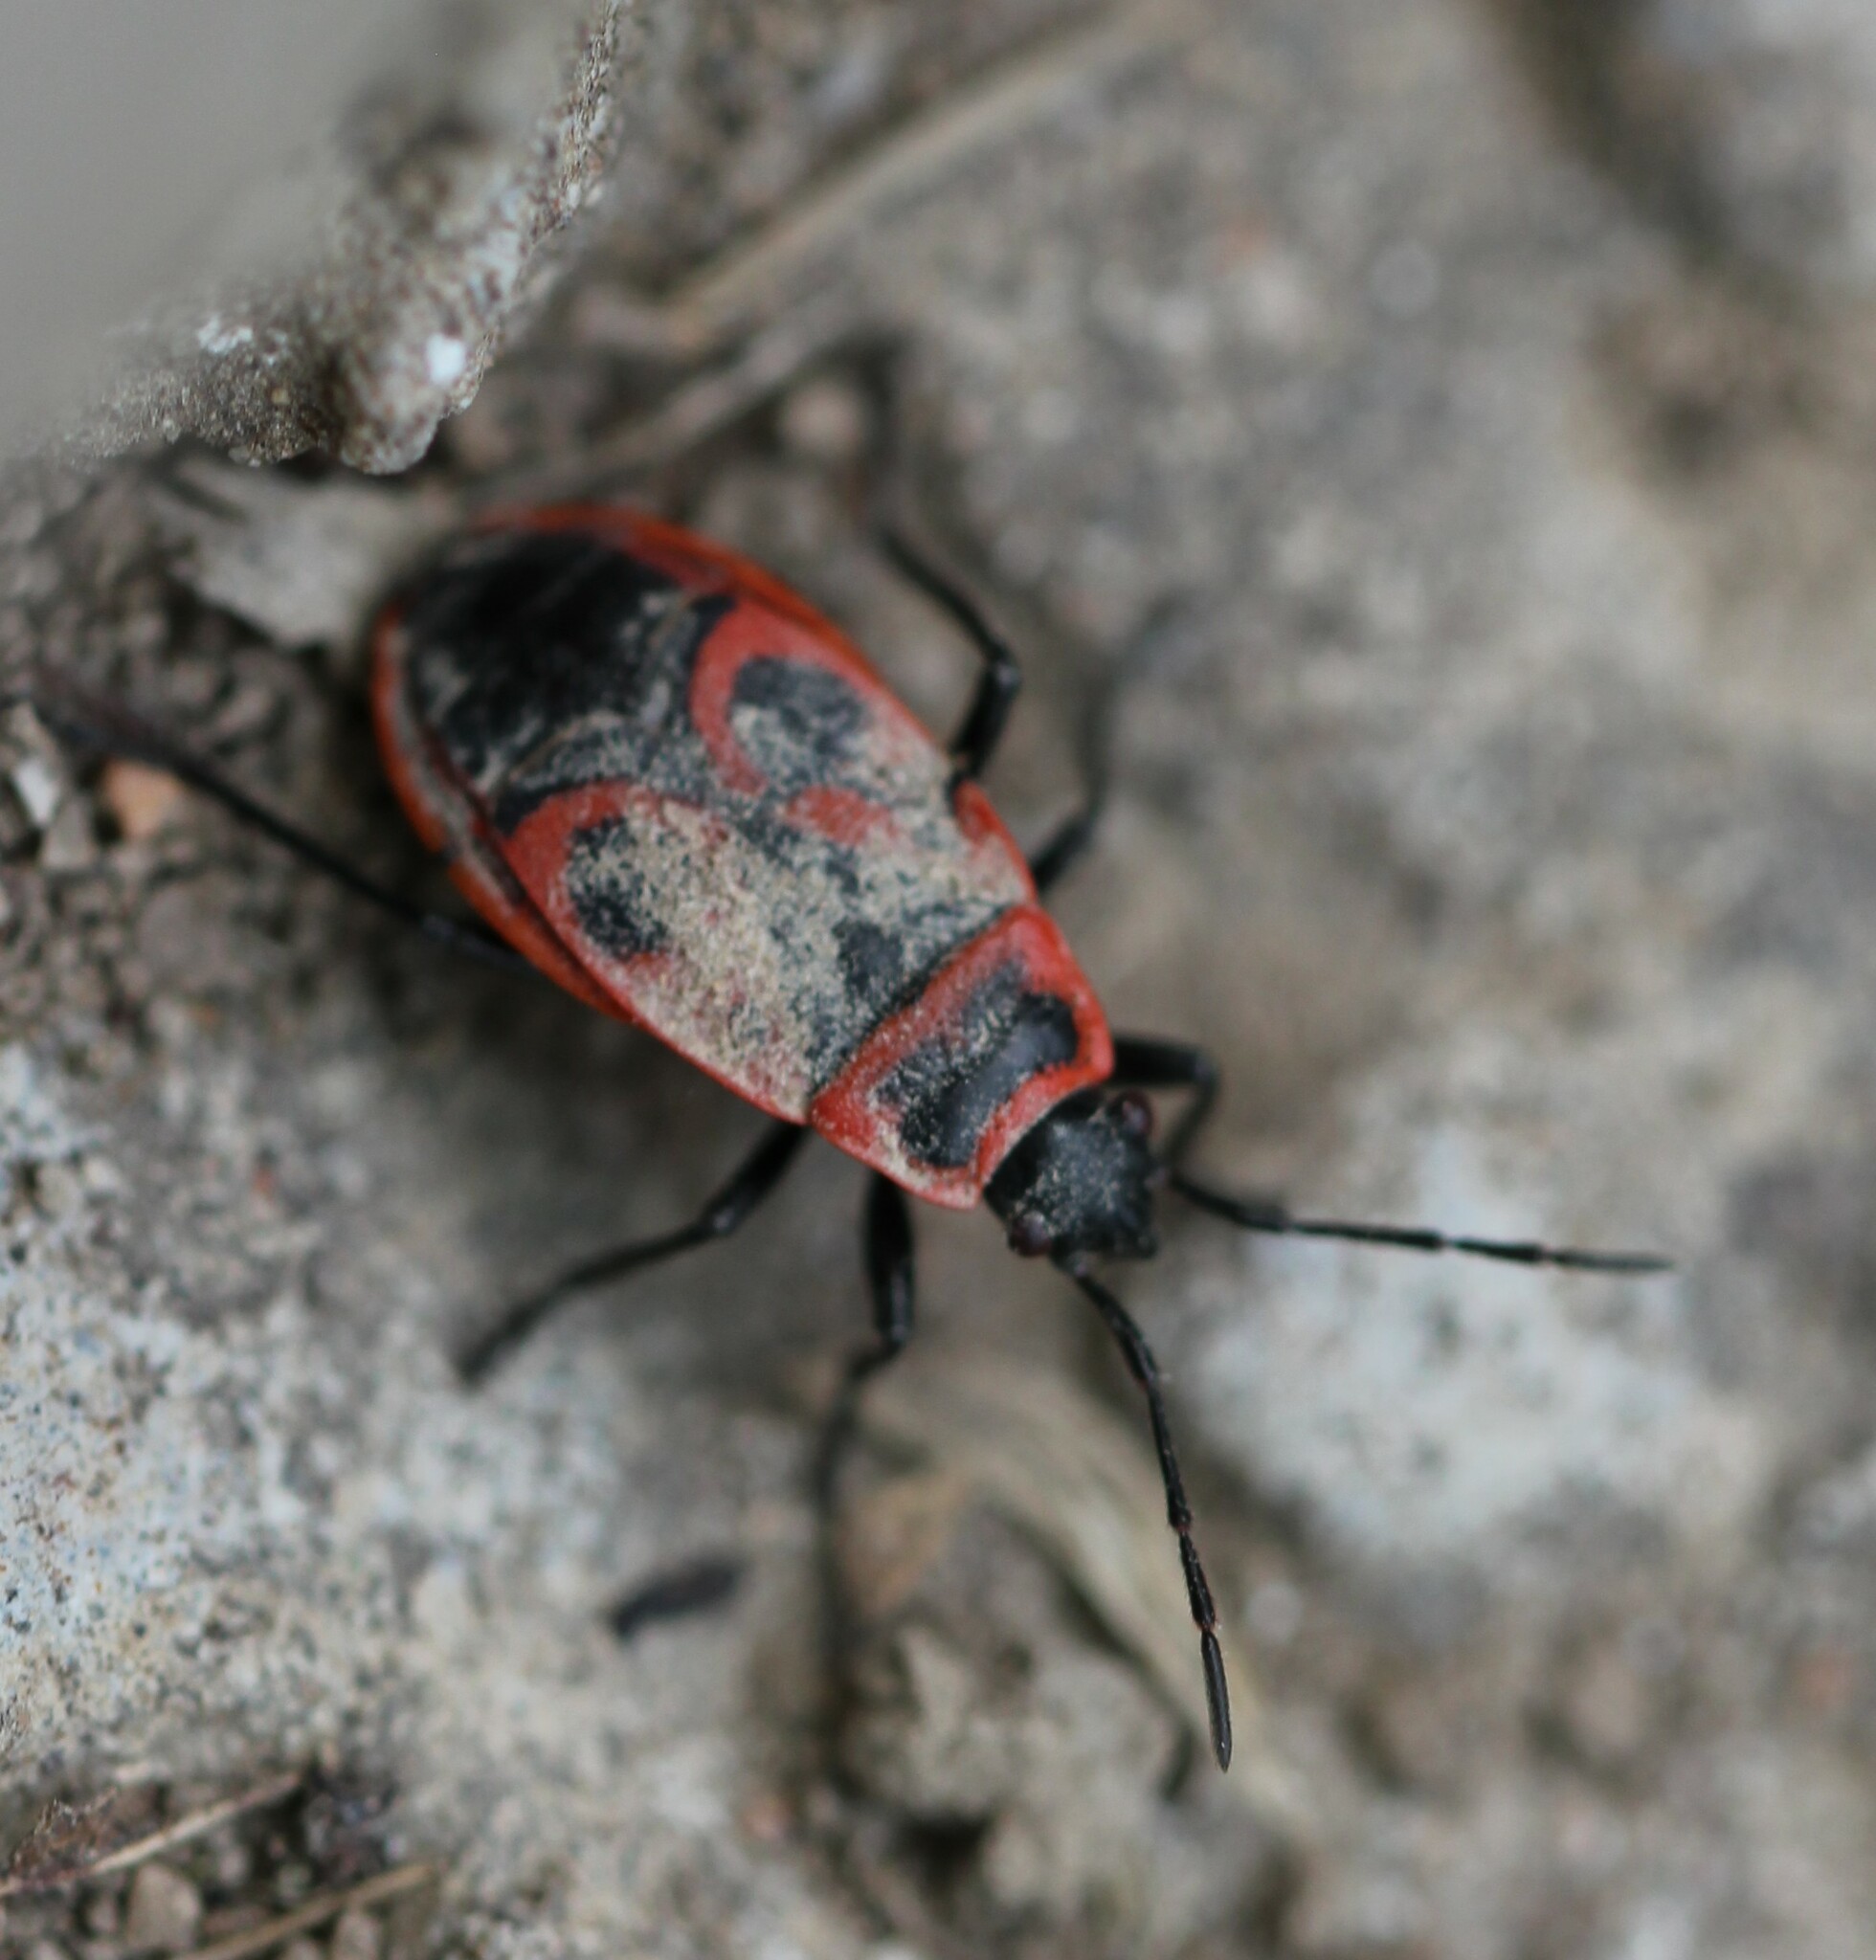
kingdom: Animalia
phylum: Arthropoda
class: Insecta
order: Hemiptera
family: Pyrrhocoridae
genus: Pyrrhocoris
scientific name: Pyrrhocoris apterus
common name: Firebug
